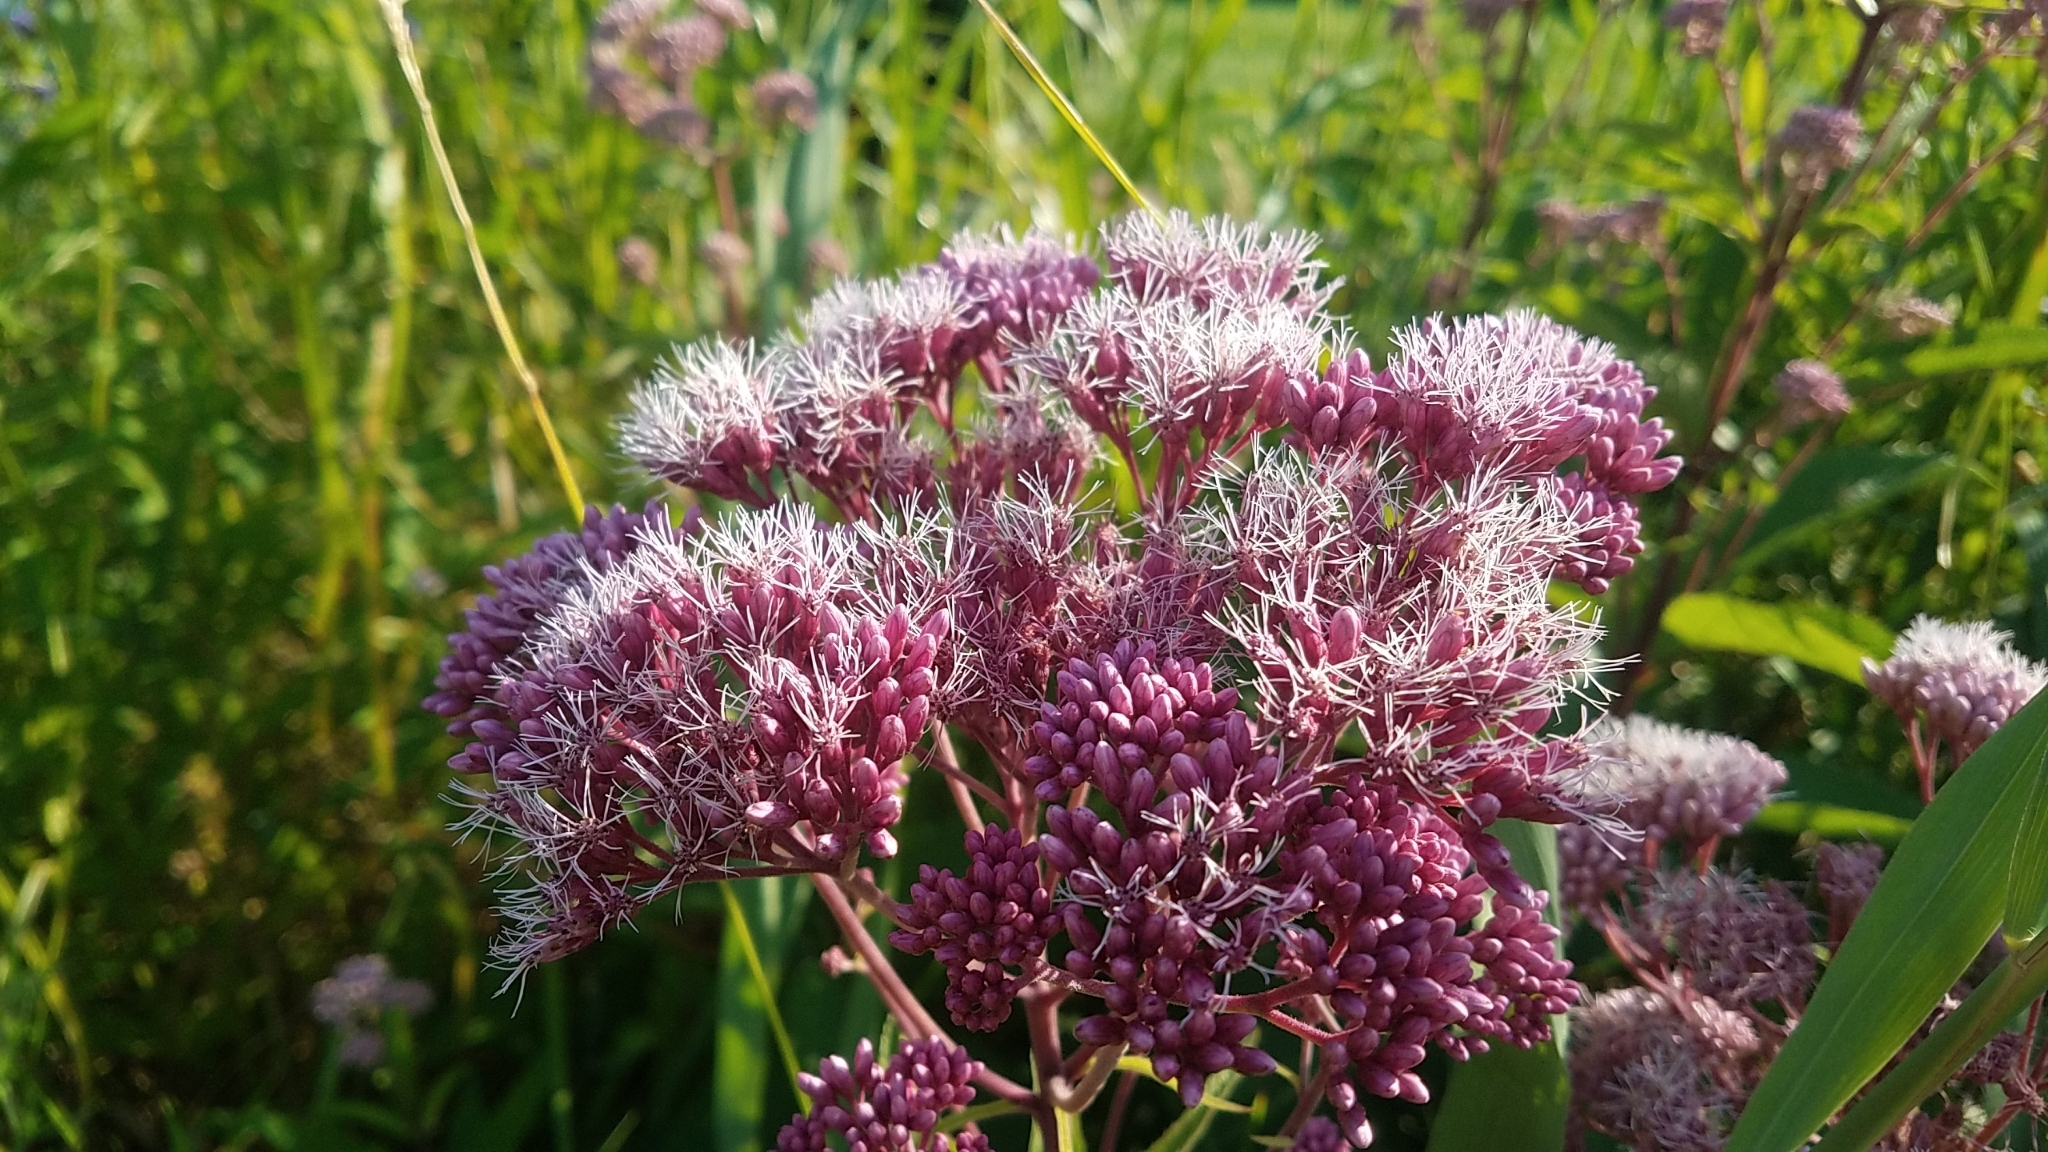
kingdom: Plantae
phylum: Tracheophyta
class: Magnoliopsida
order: Asterales
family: Asteraceae
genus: Eutrochium
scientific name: Eutrochium maculatum
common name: Spotted joe pye weed
